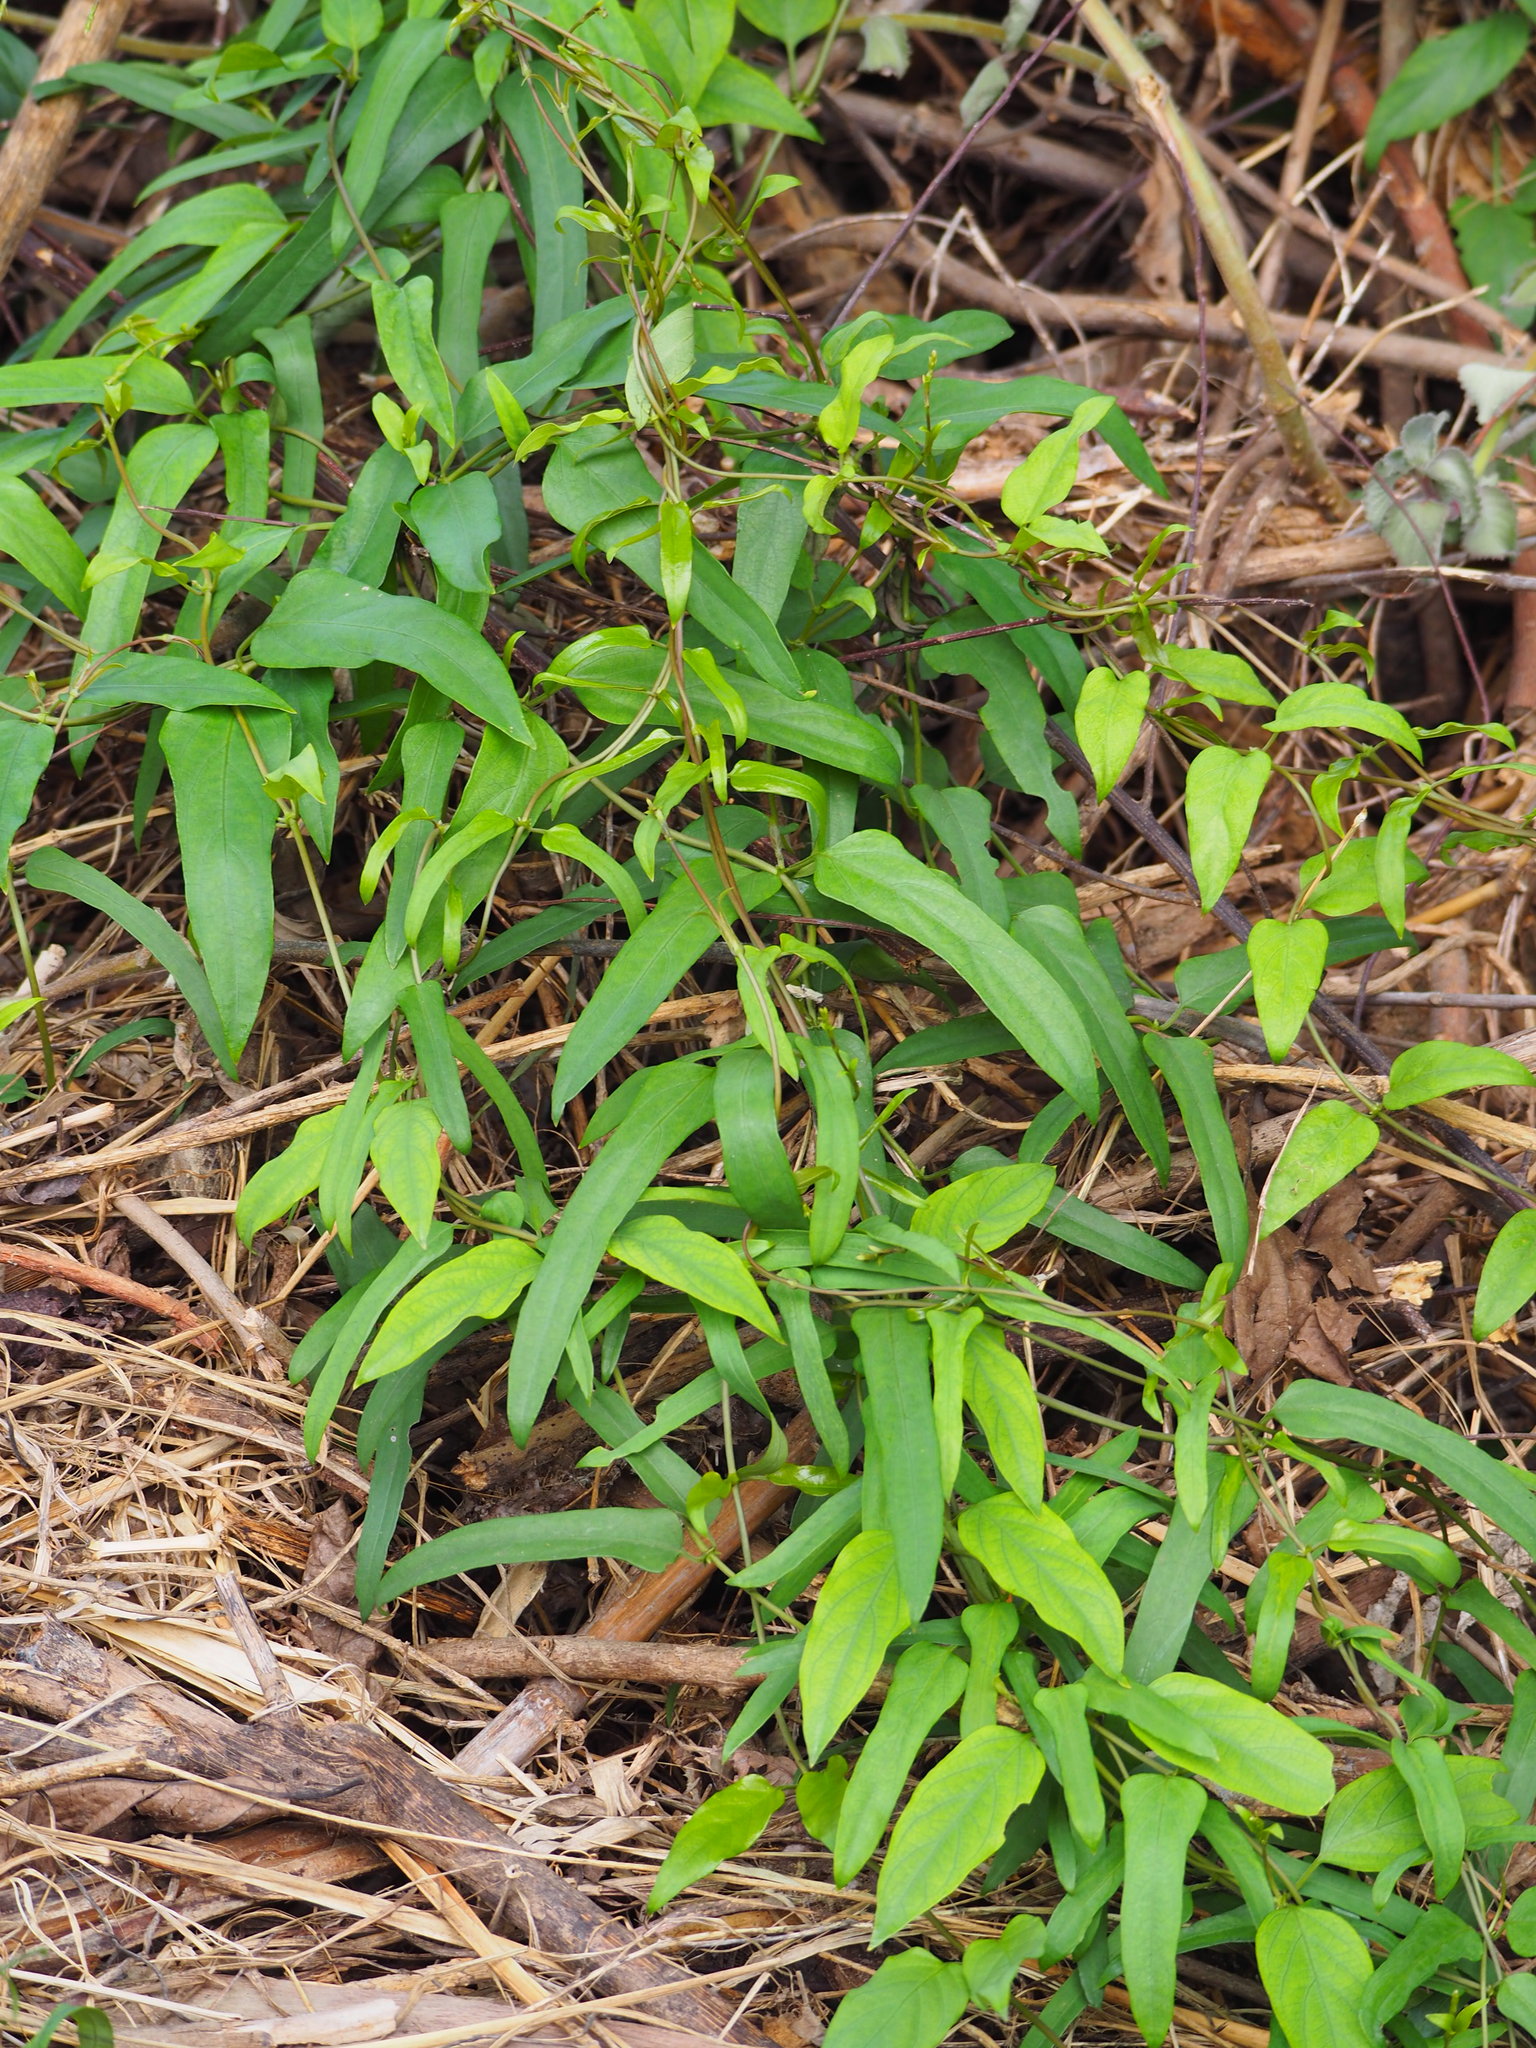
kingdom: Plantae
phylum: Tracheophyta
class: Magnoliopsida
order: Gentianales
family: Rubiaceae
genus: Paederia
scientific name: Paederia foetida
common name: Stinkvine
